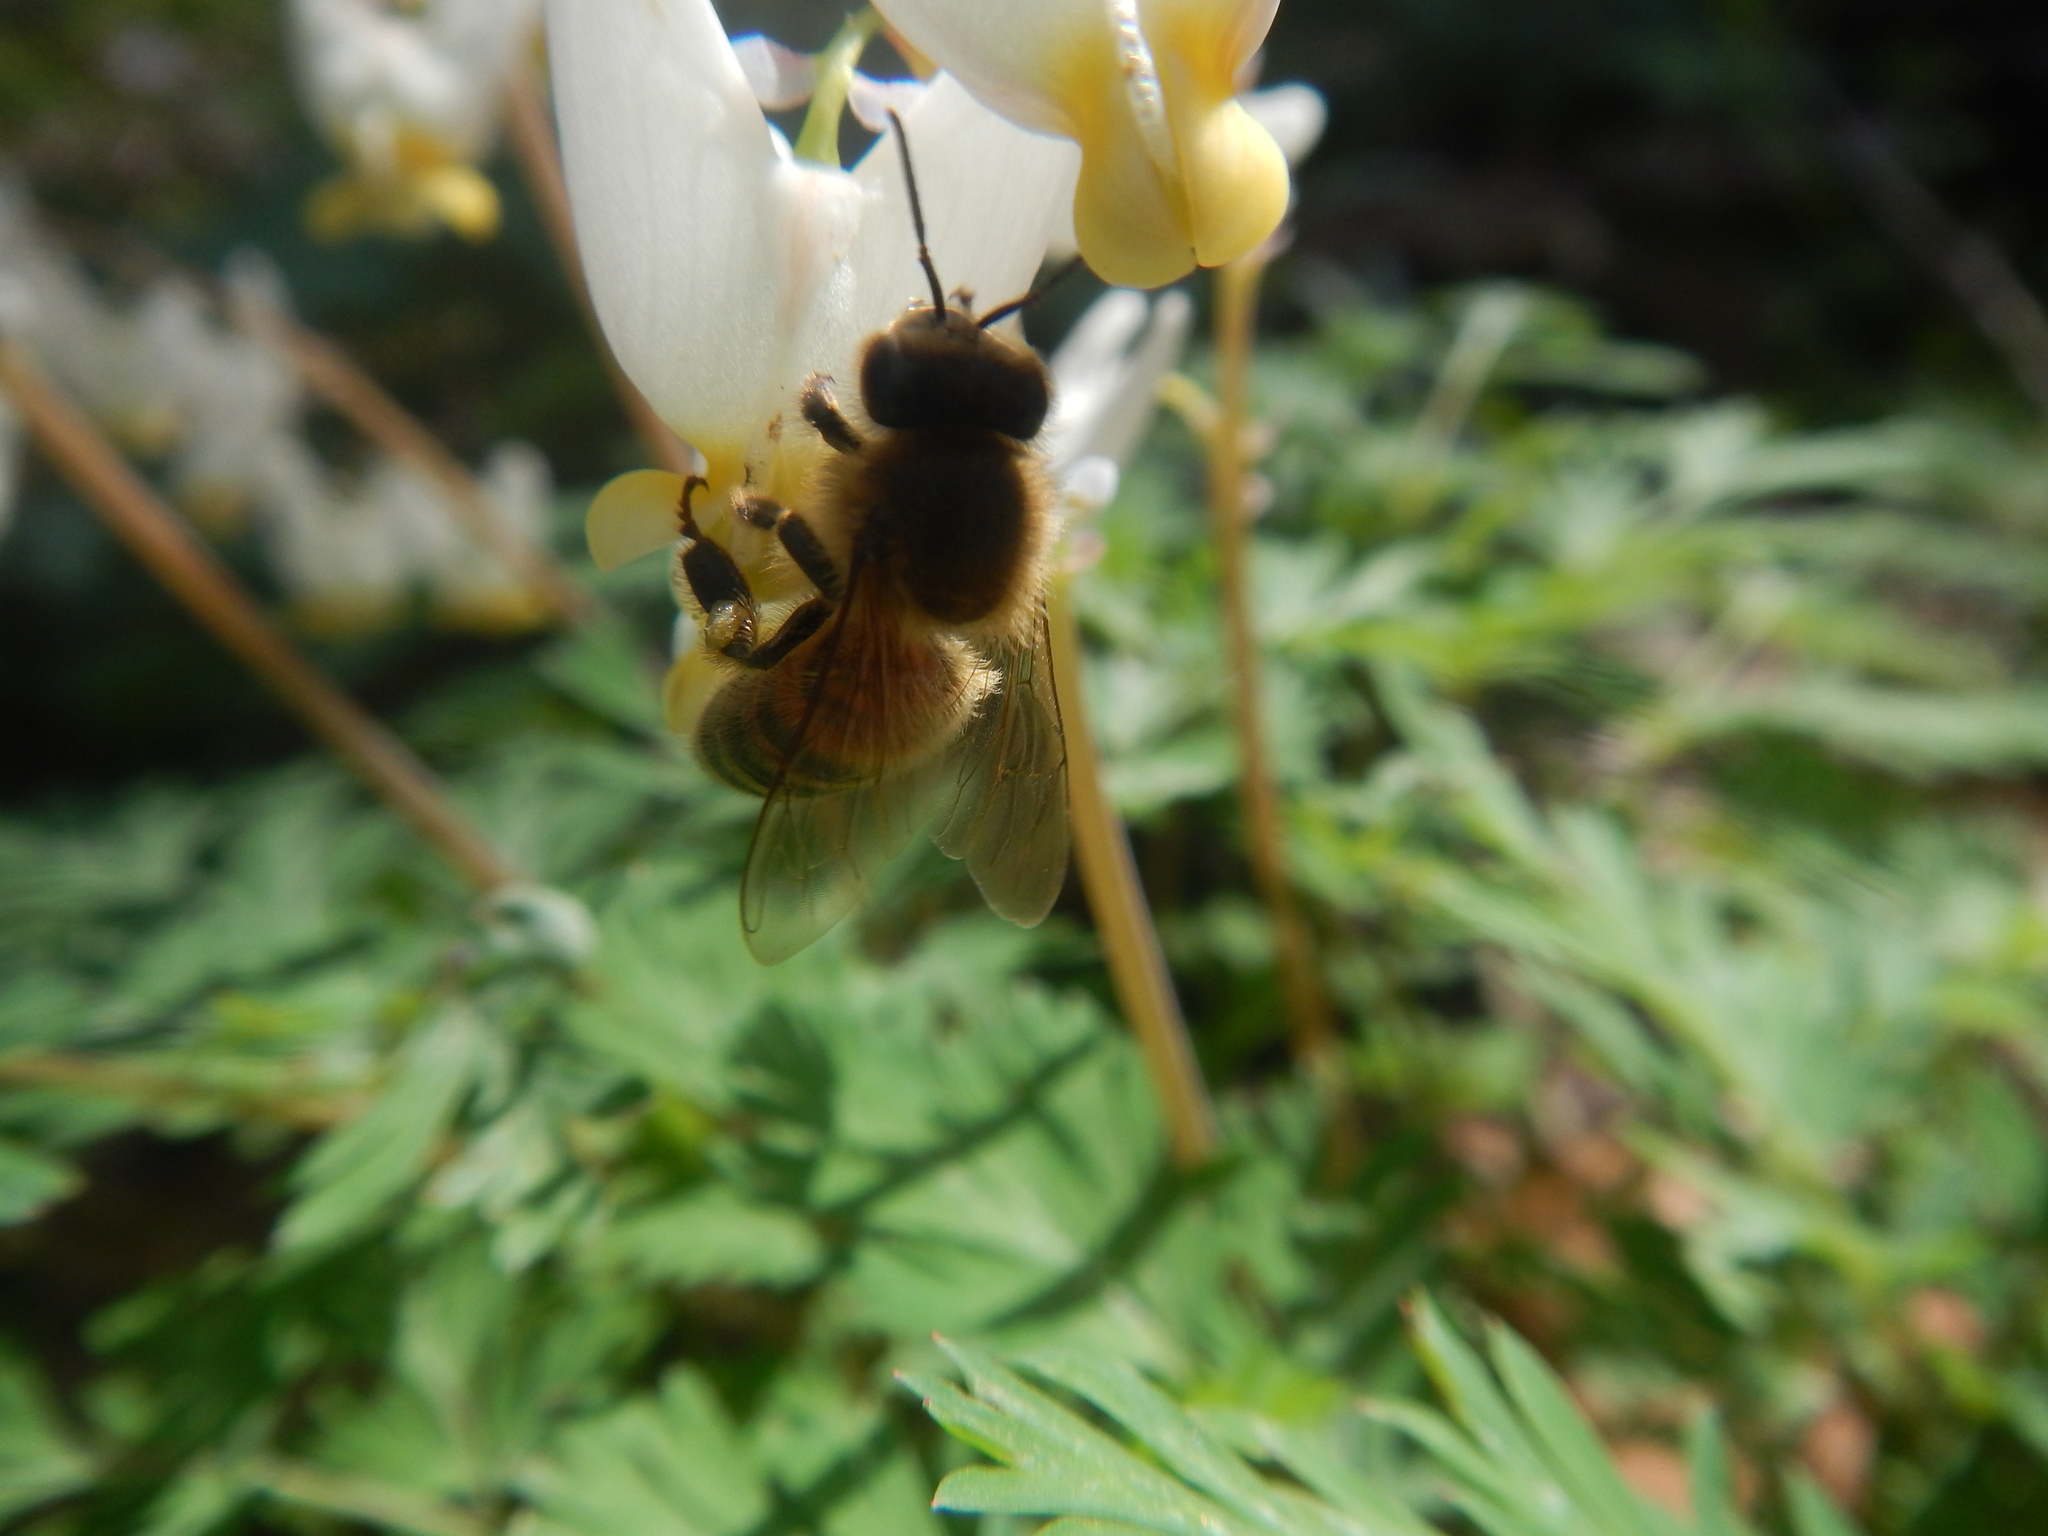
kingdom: Animalia
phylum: Arthropoda
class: Insecta
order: Hymenoptera
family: Apidae
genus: Apis
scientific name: Apis mellifera
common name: Honey bee
